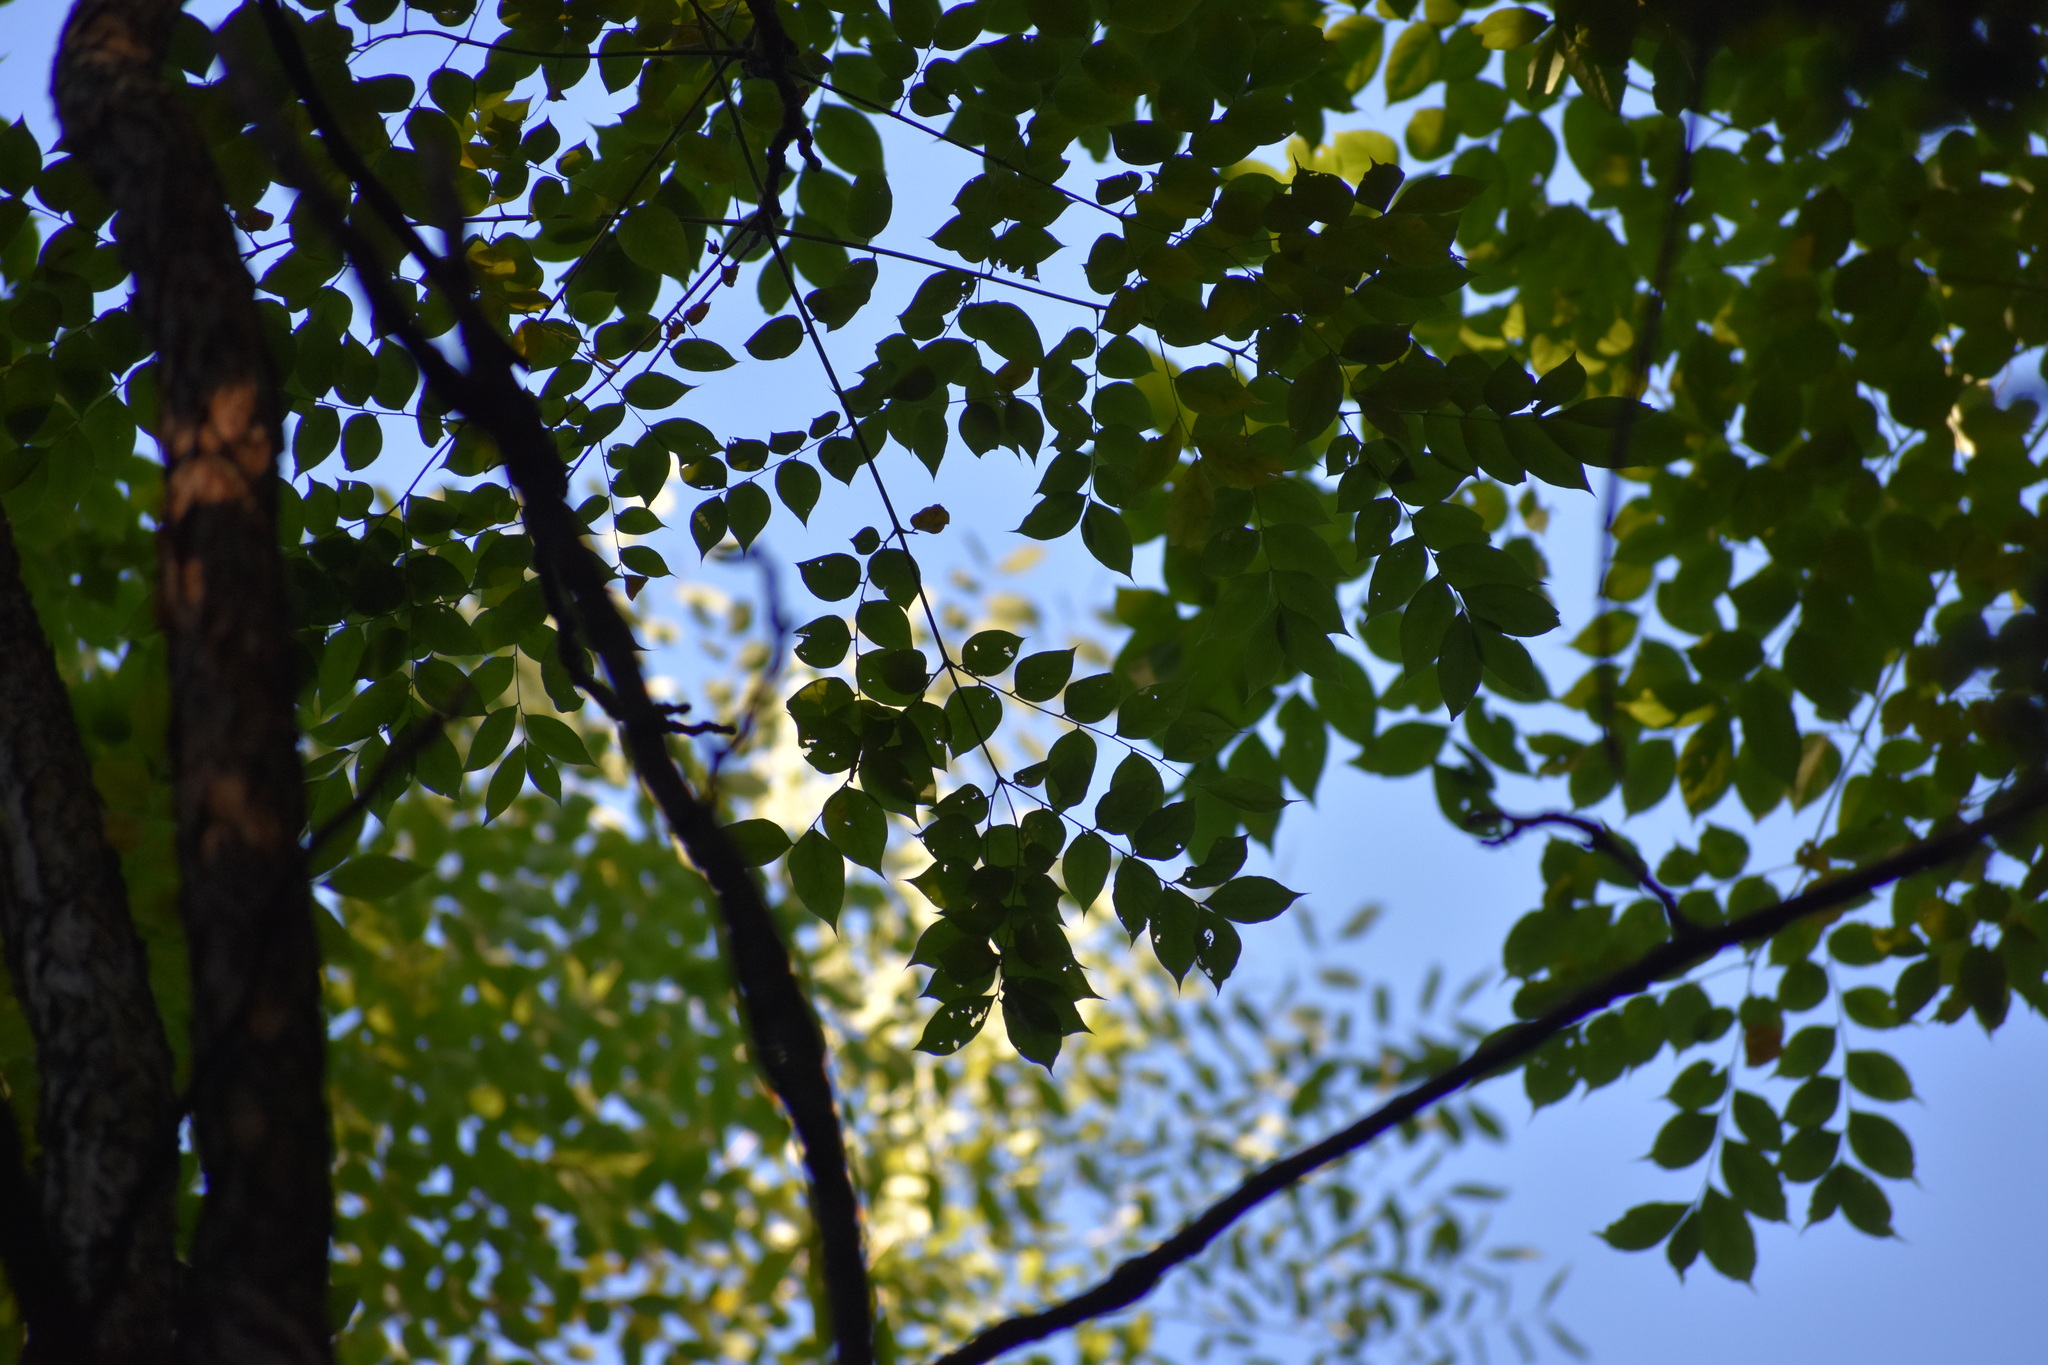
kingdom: Plantae
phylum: Tracheophyta
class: Magnoliopsida
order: Fabales
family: Fabaceae
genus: Gymnocladus
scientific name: Gymnocladus dioicus
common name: Kentucky coffee-tree
